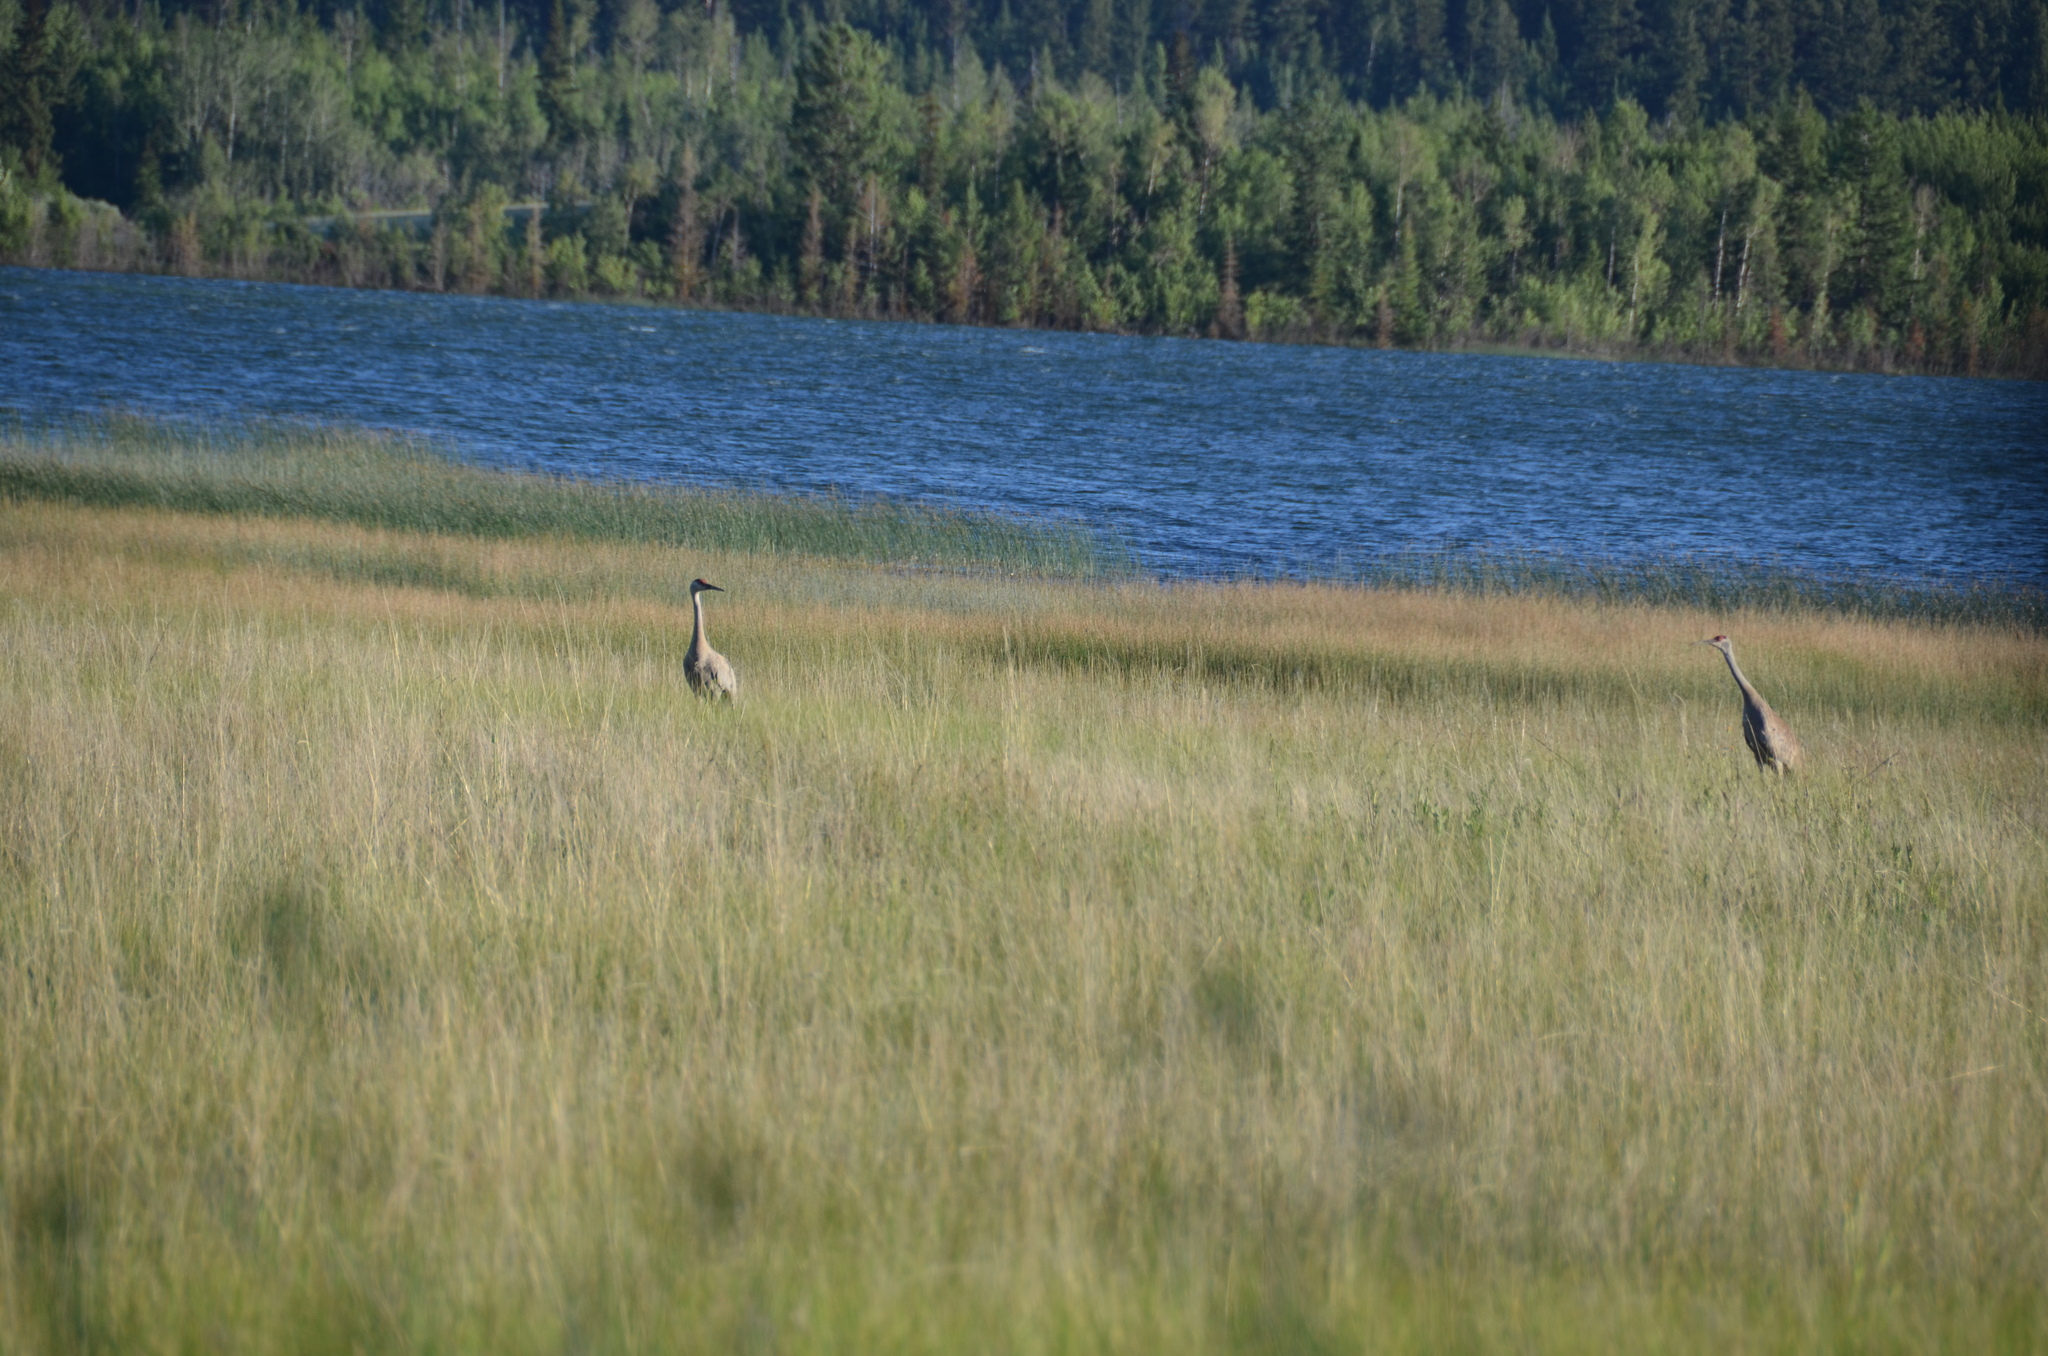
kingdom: Animalia
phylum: Chordata
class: Aves
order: Gruiformes
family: Gruidae
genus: Grus
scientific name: Grus canadensis
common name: Sandhill crane
